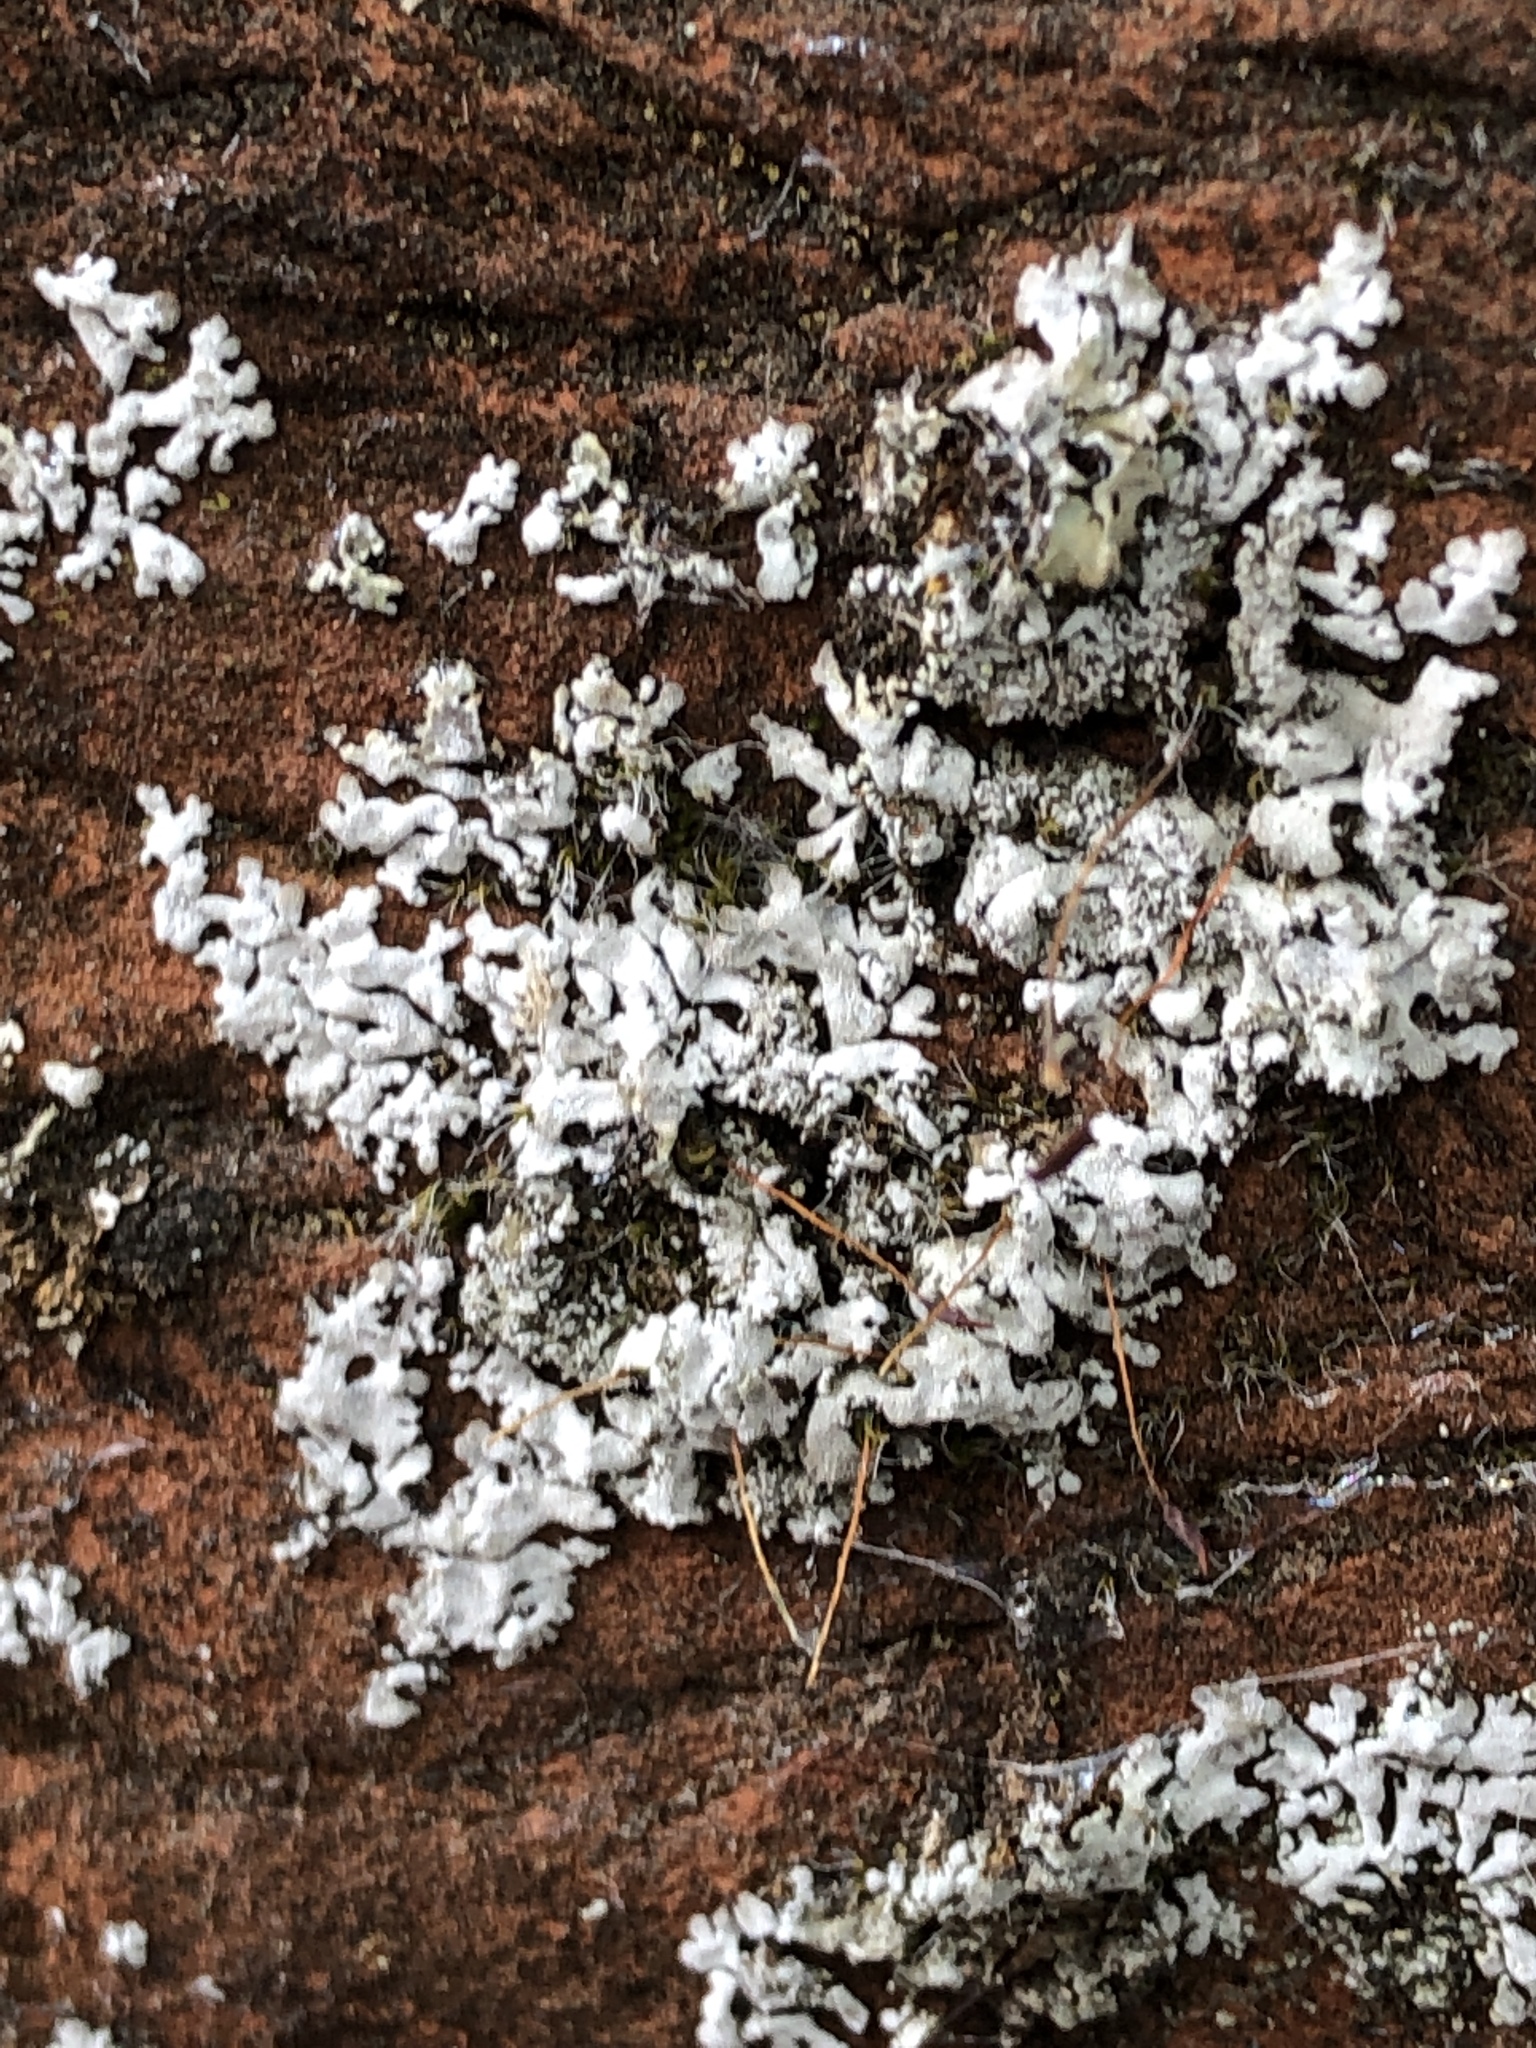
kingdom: Fungi
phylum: Ascomycota
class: Lecanoromycetes
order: Caliciales
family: Physciaceae
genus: Physcia
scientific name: Physcia adscendens
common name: Hooded rosette lichen
